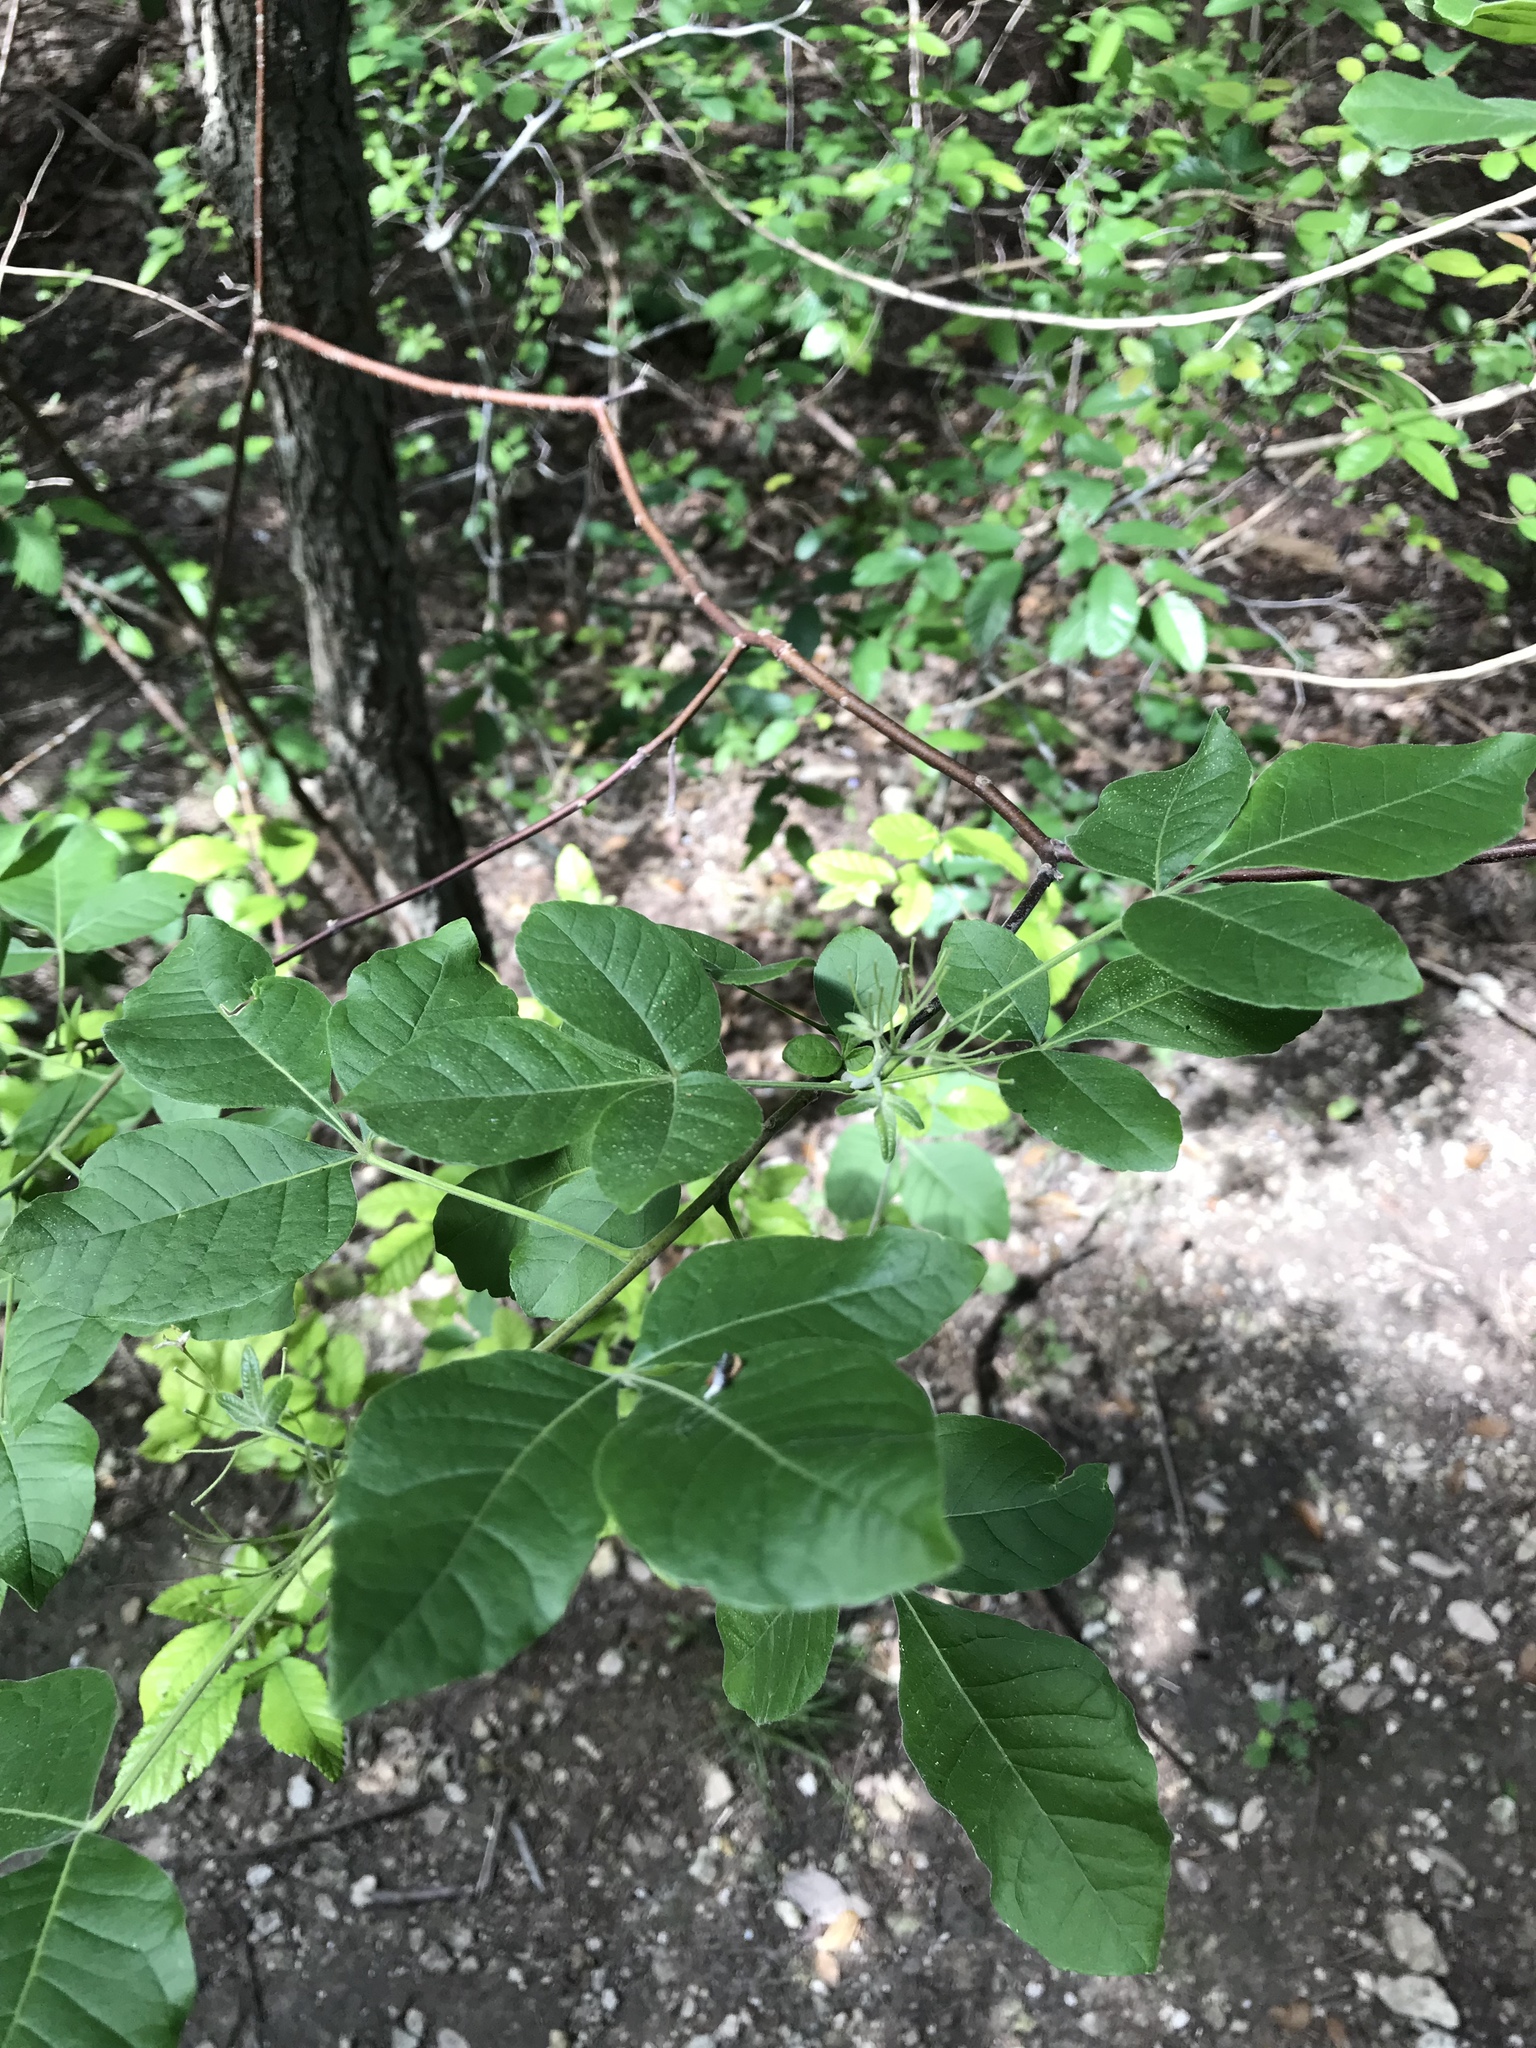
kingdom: Plantae
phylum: Tracheophyta
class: Magnoliopsida
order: Sapindales
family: Rutaceae
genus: Ptelea
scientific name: Ptelea trifoliata
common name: Common hop-tree
